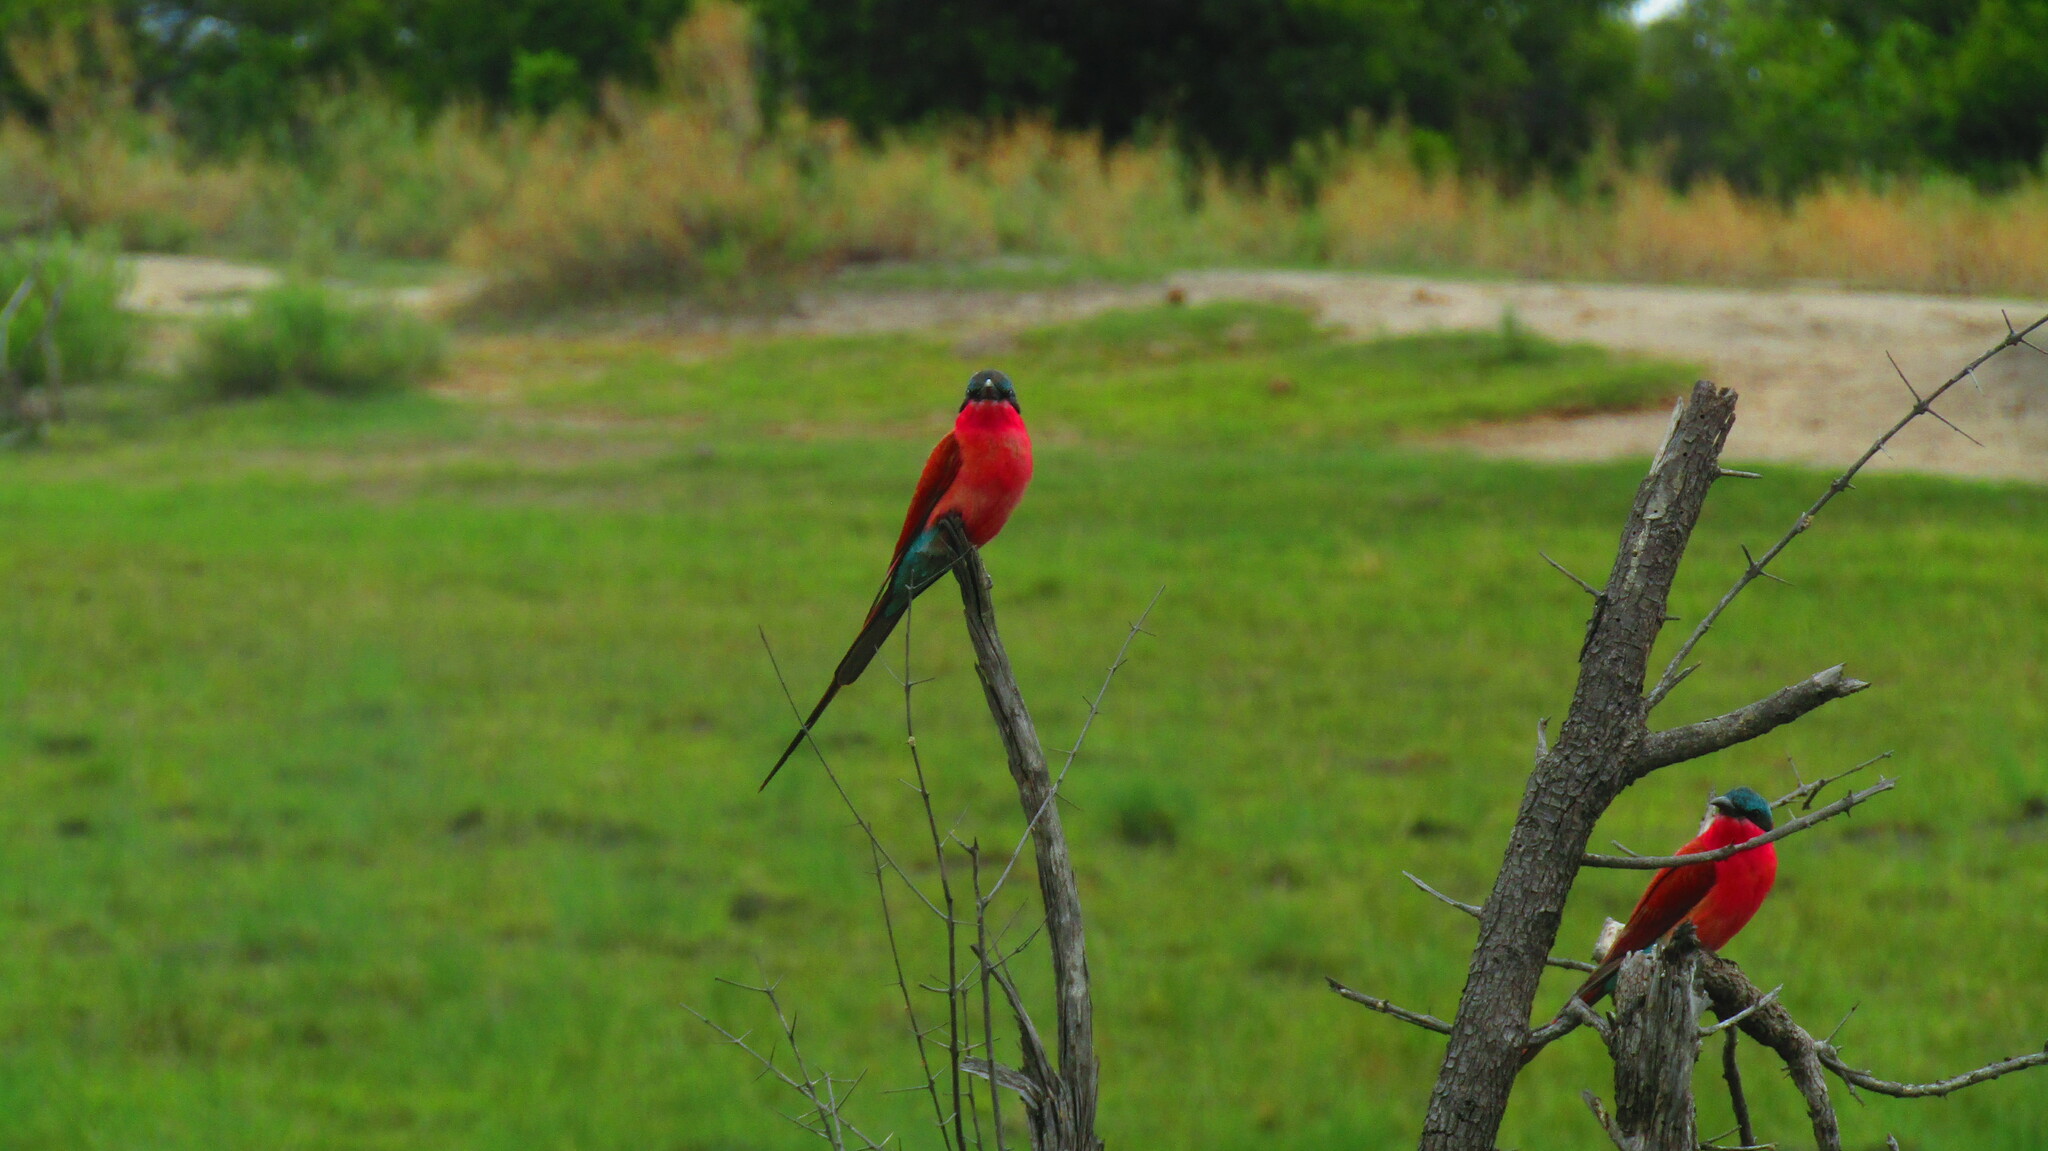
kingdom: Animalia
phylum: Chordata
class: Aves
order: Coraciiformes
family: Meropidae
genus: Merops
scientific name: Merops nubicoides
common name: Southern carmine bee-eater
